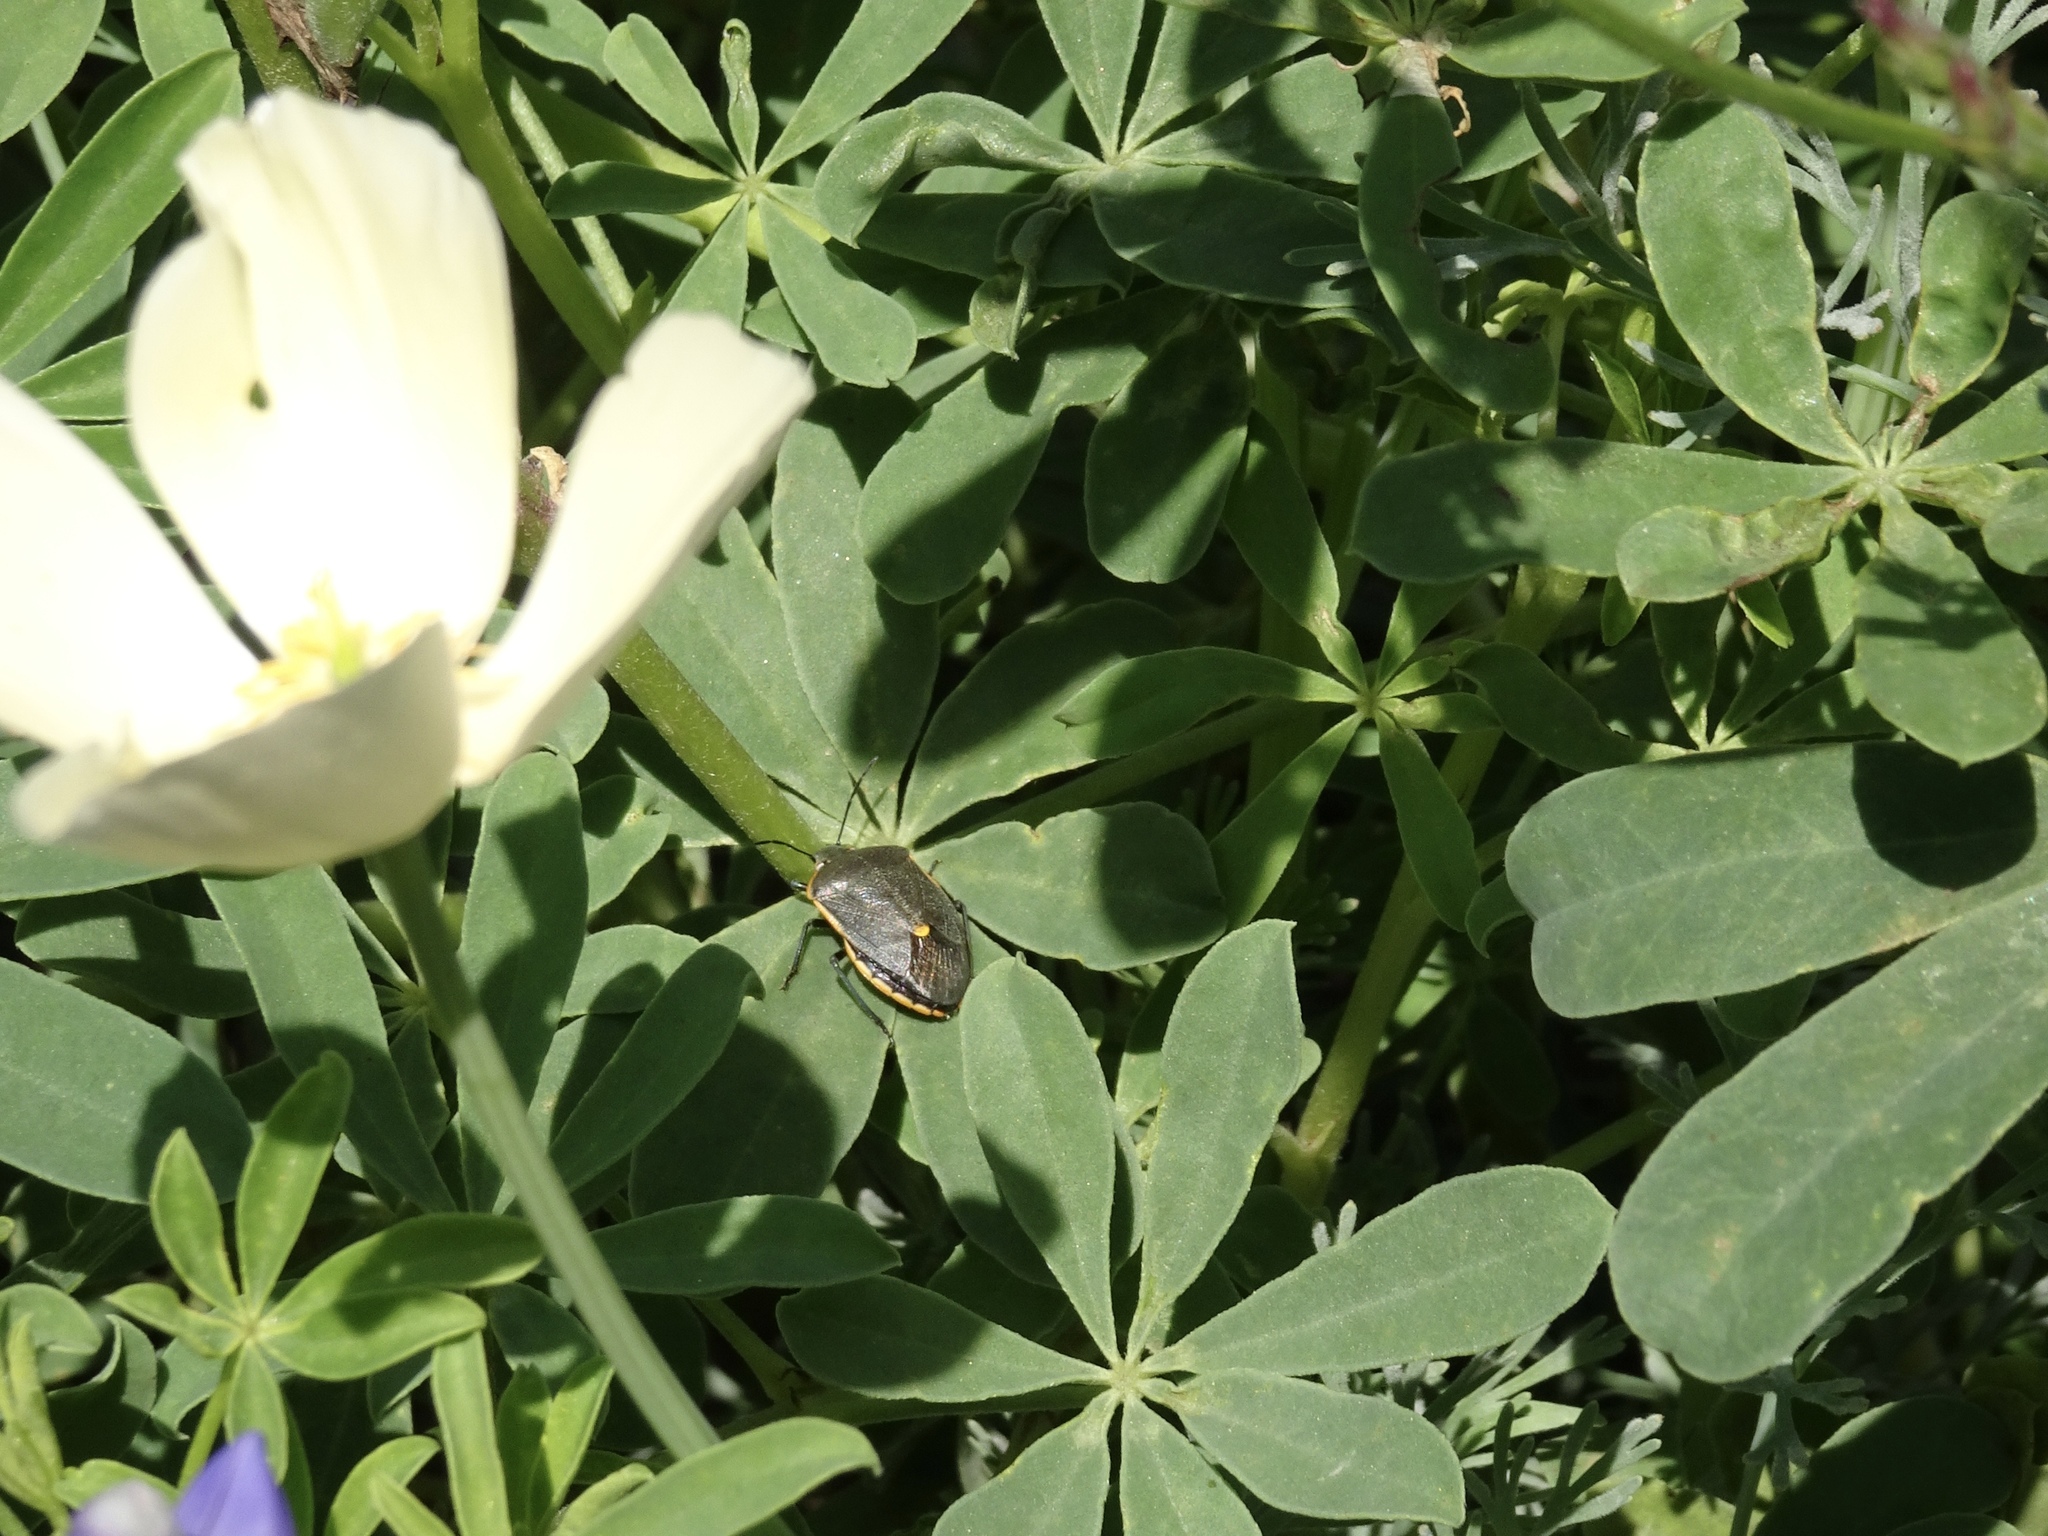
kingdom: Animalia
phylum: Arthropoda
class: Insecta
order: Hemiptera
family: Pentatomidae
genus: Chlorochroa
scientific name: Chlorochroa ligata
